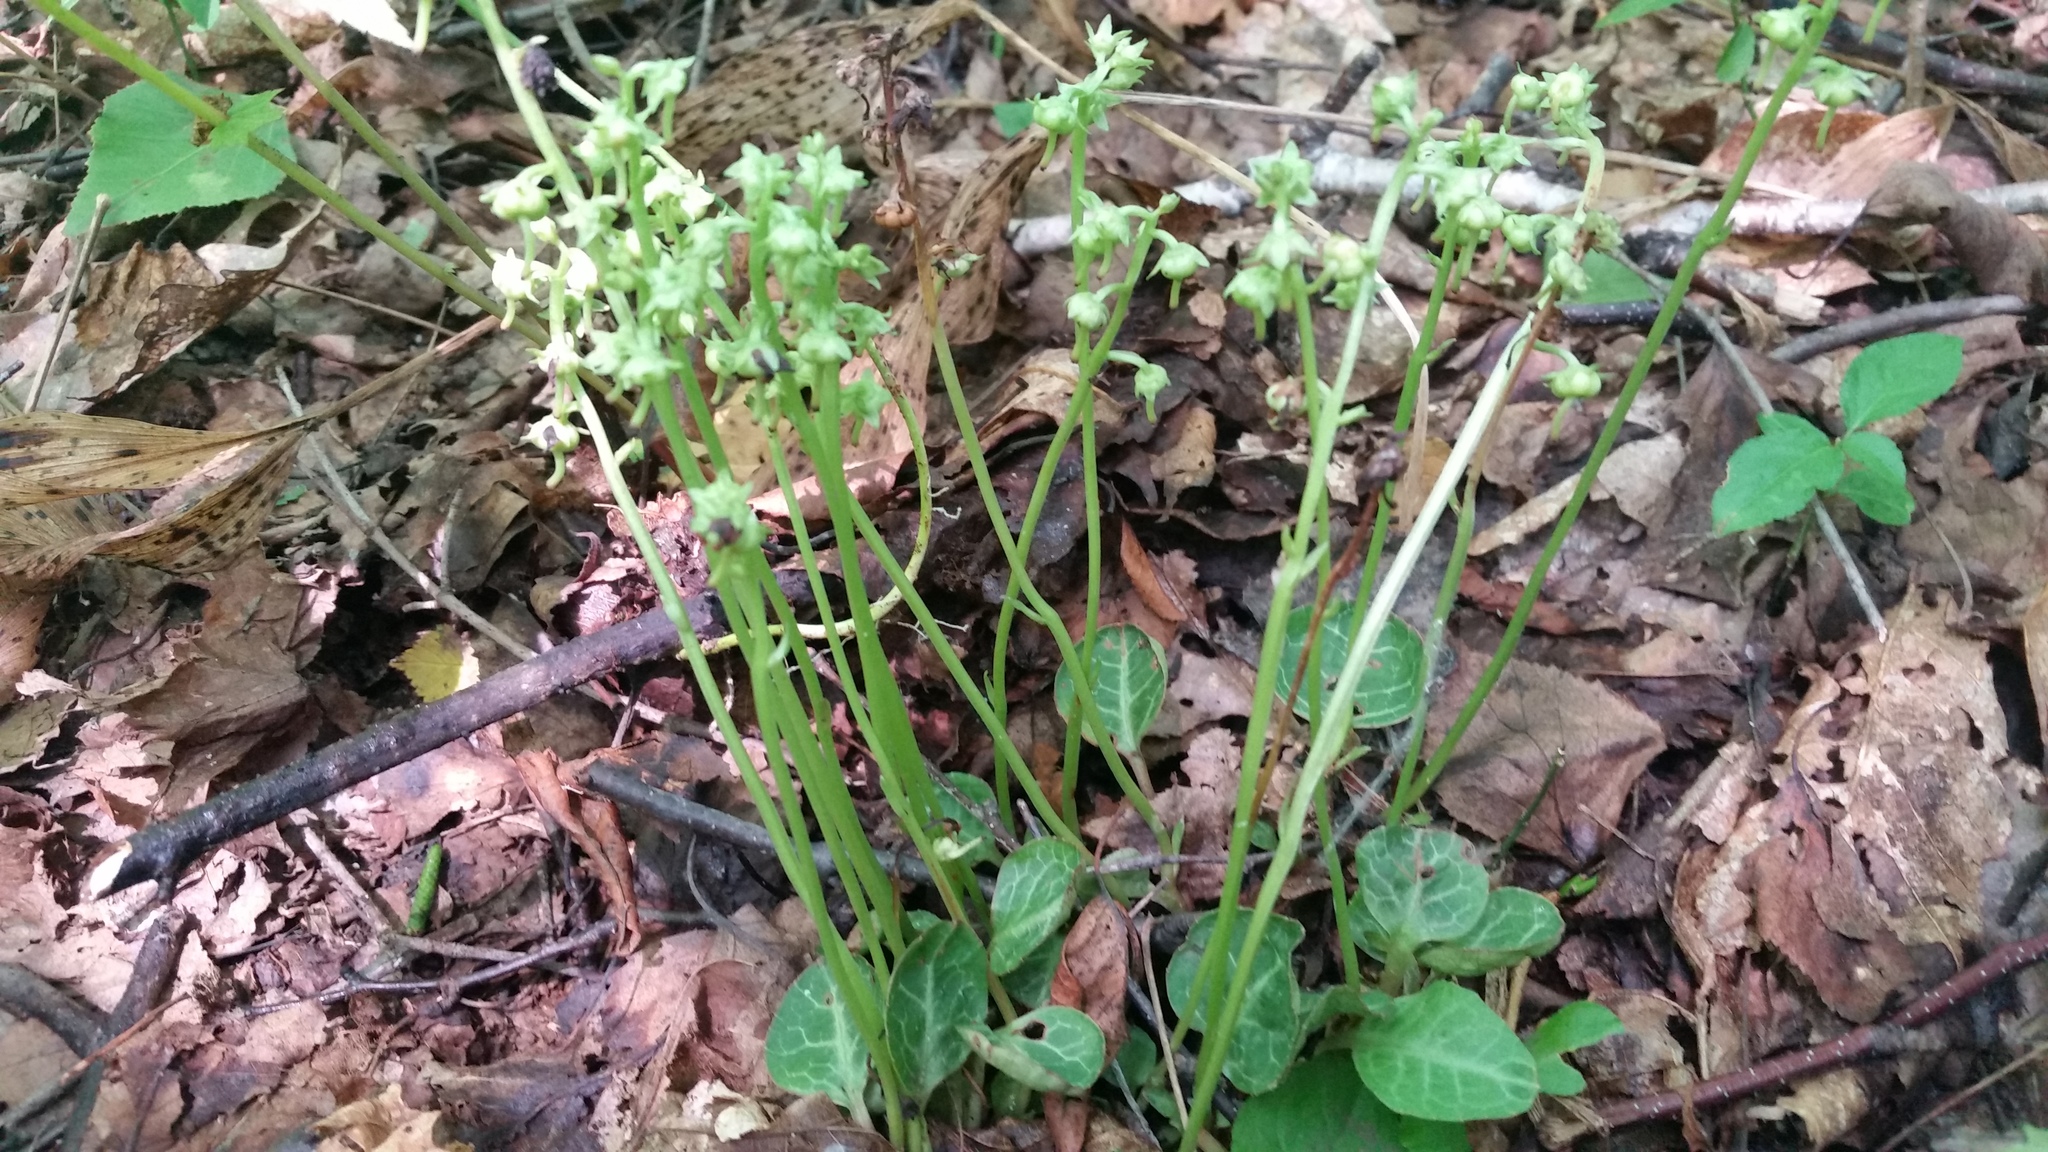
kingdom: Plantae
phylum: Tracheophyta
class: Magnoliopsida
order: Ericales
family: Ericaceae
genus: Pyrola
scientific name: Pyrola japonica
